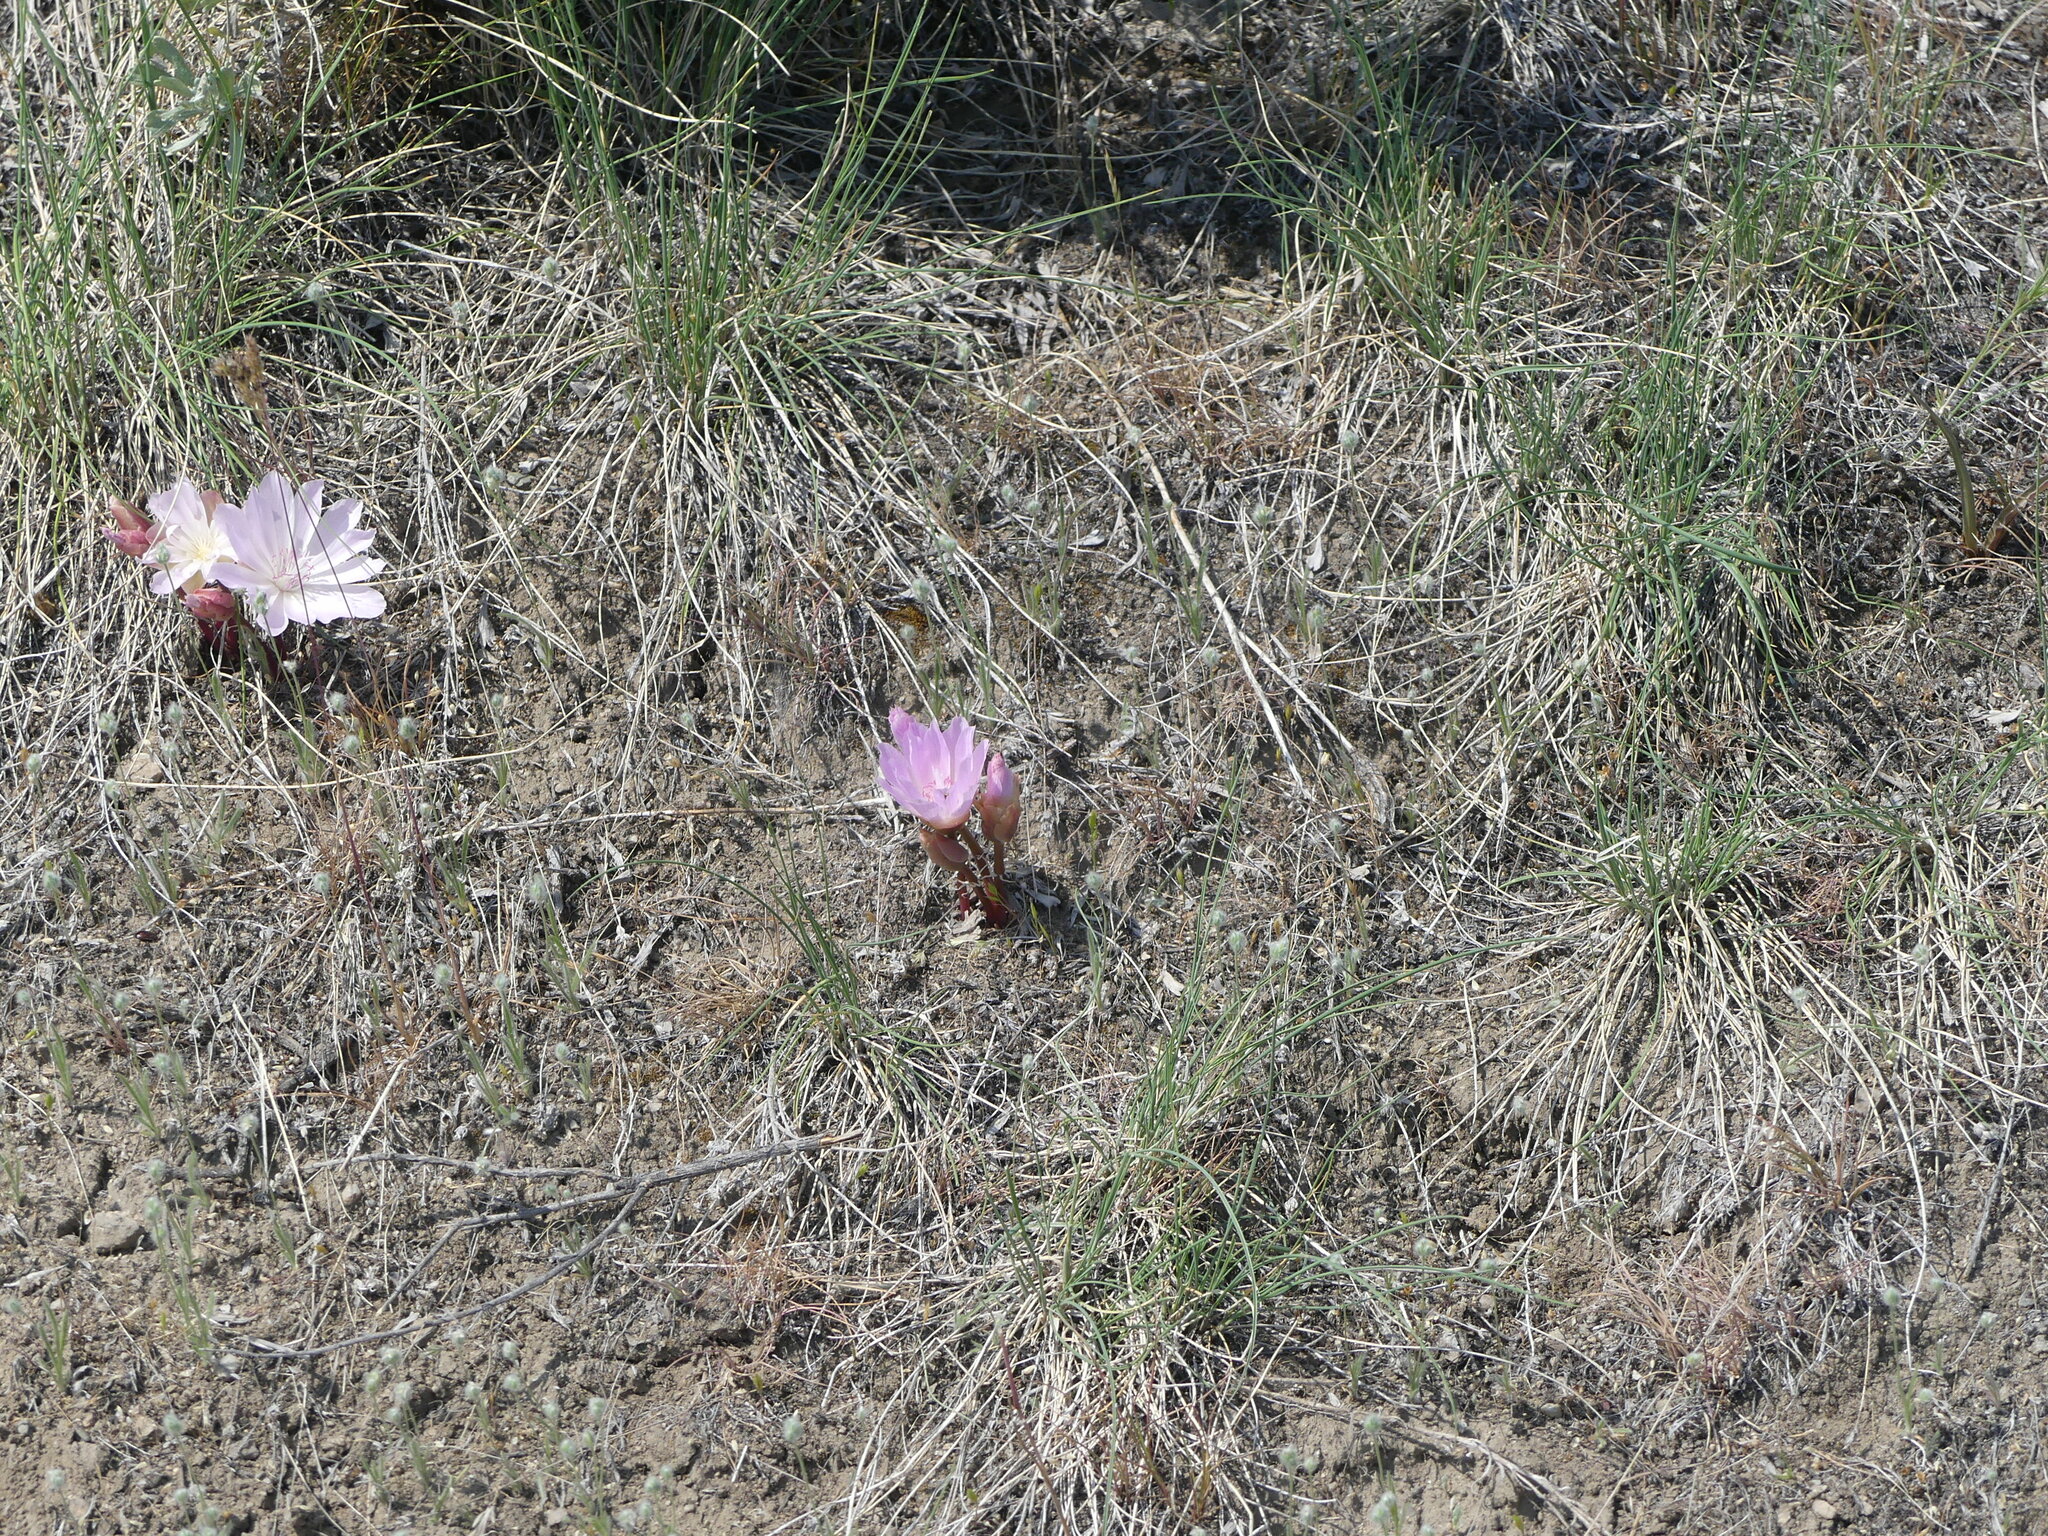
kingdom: Plantae
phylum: Tracheophyta
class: Magnoliopsida
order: Caryophyllales
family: Montiaceae
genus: Lewisia
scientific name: Lewisia rediviva
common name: Bitter-root
